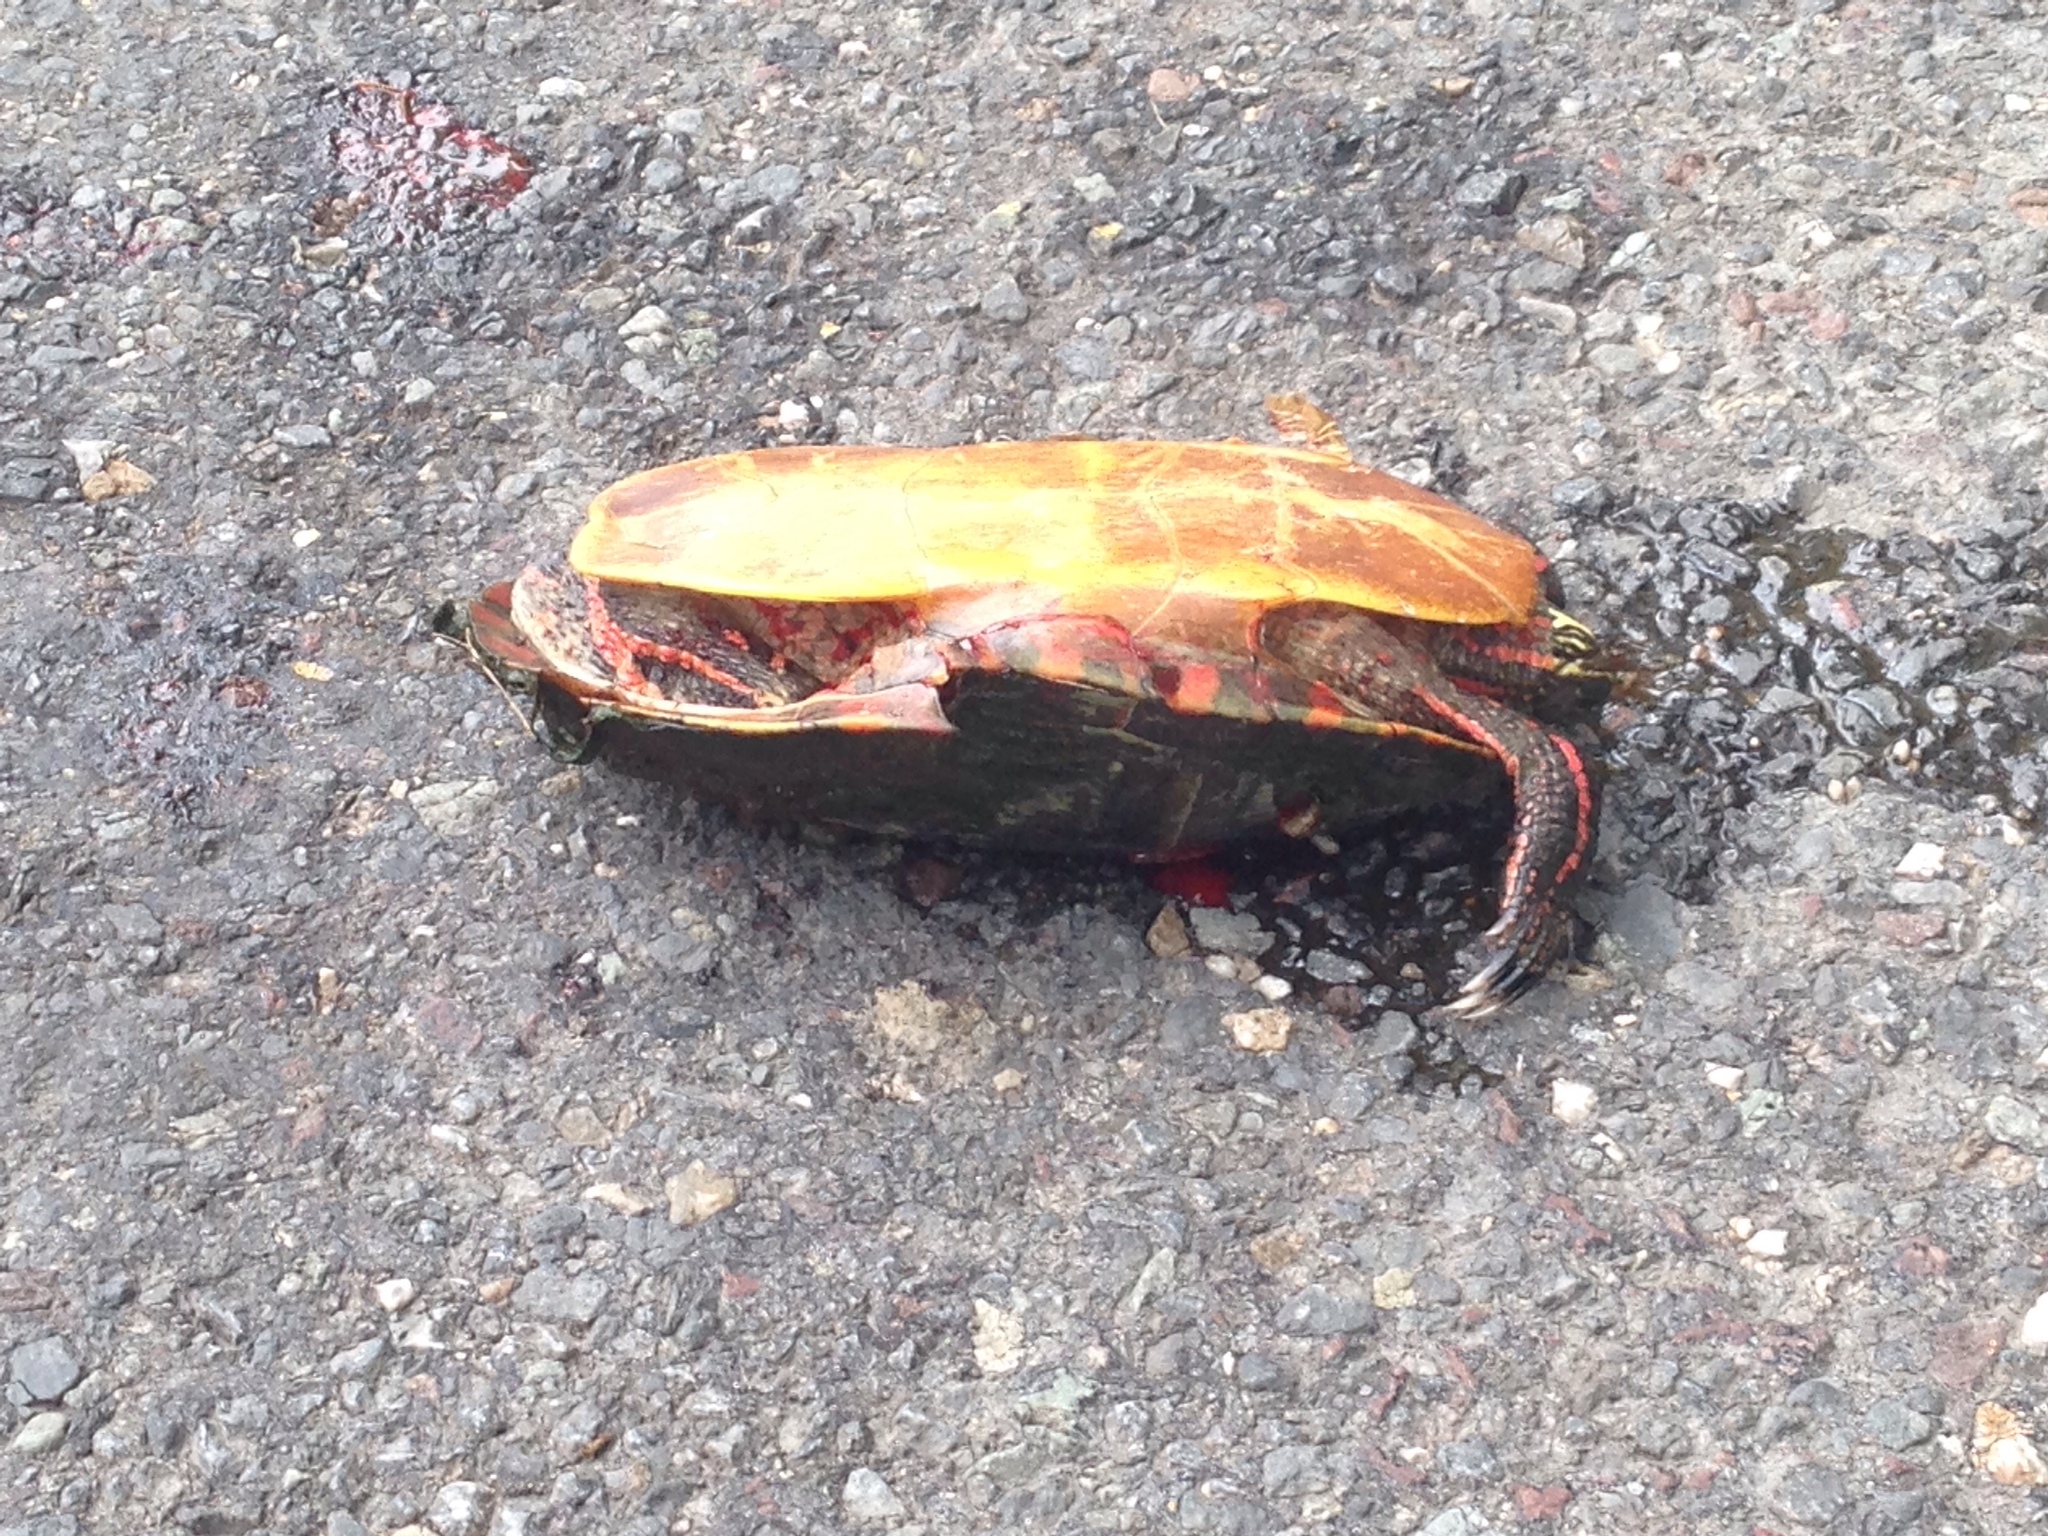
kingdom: Animalia
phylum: Chordata
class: Testudines
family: Emydidae
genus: Chrysemys
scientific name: Chrysemys picta
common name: Painted turtle
